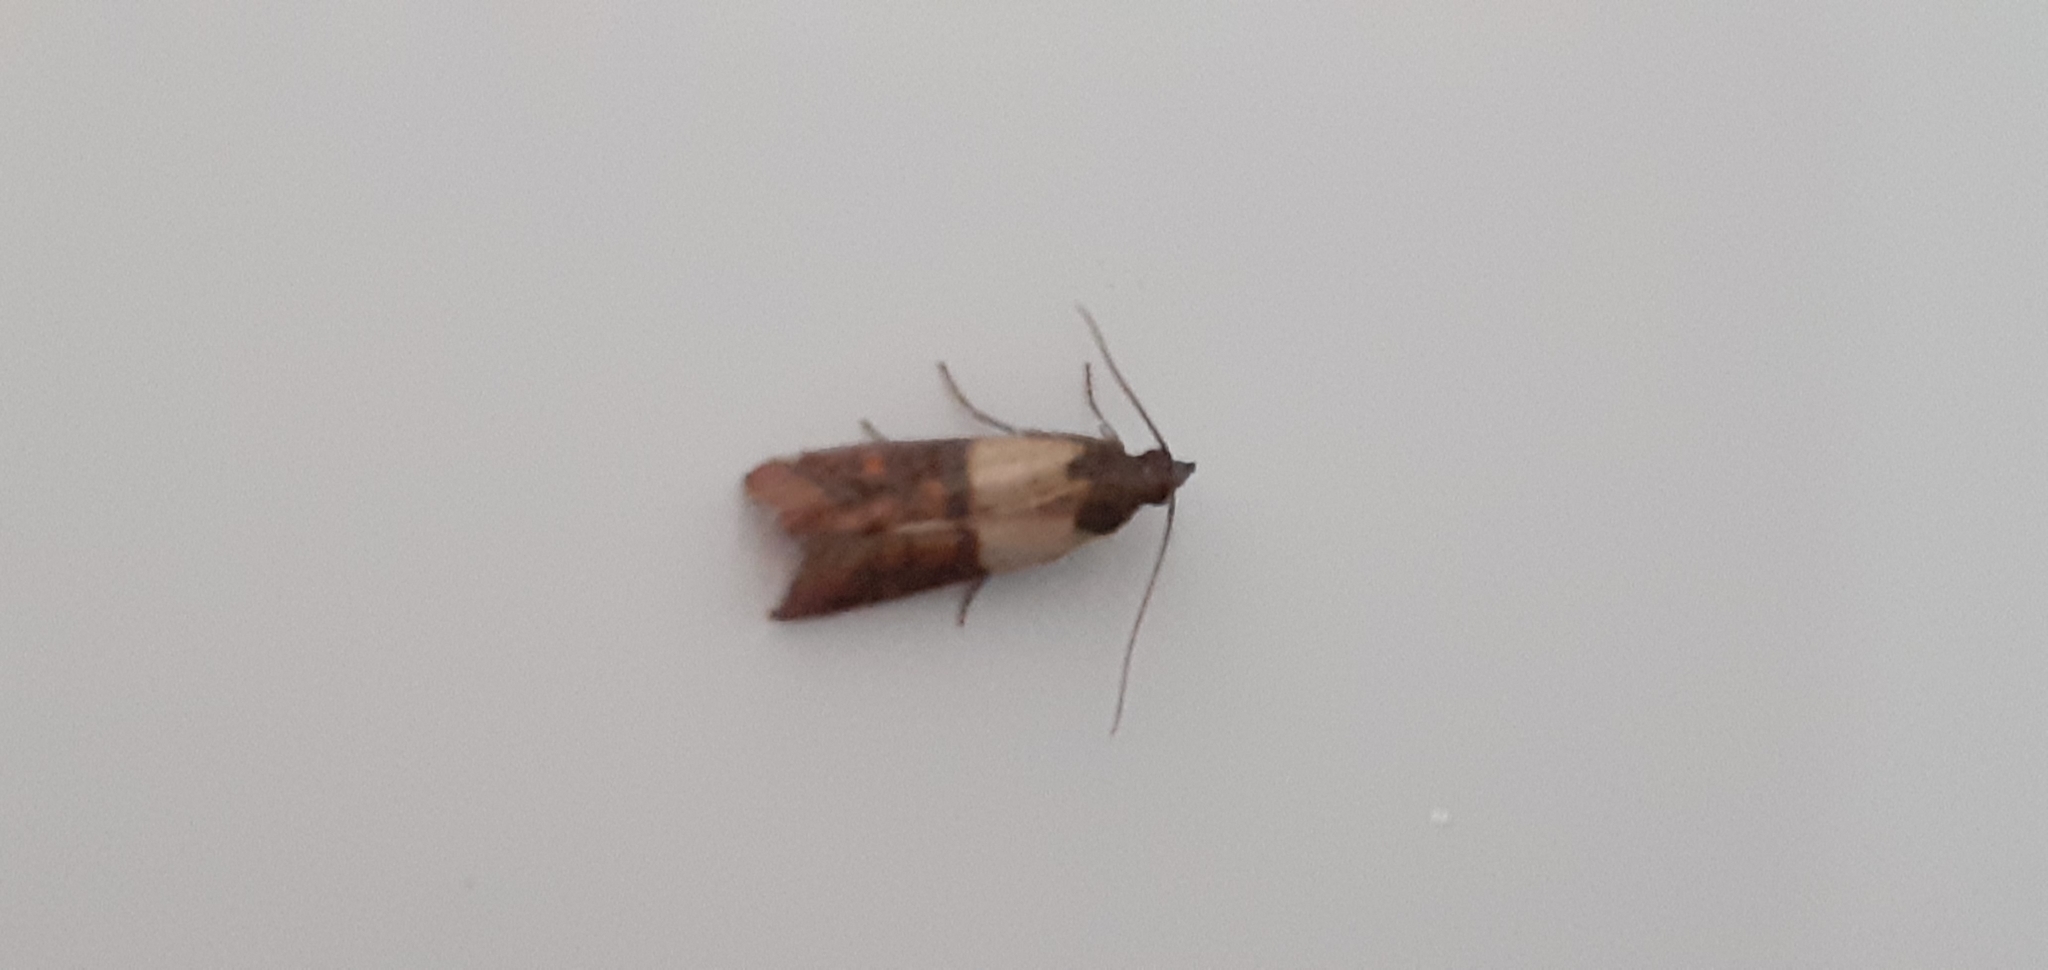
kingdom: Animalia
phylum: Arthropoda
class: Insecta
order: Lepidoptera
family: Pyralidae
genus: Plodia
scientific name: Plodia interpunctella
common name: Indian meal moth
